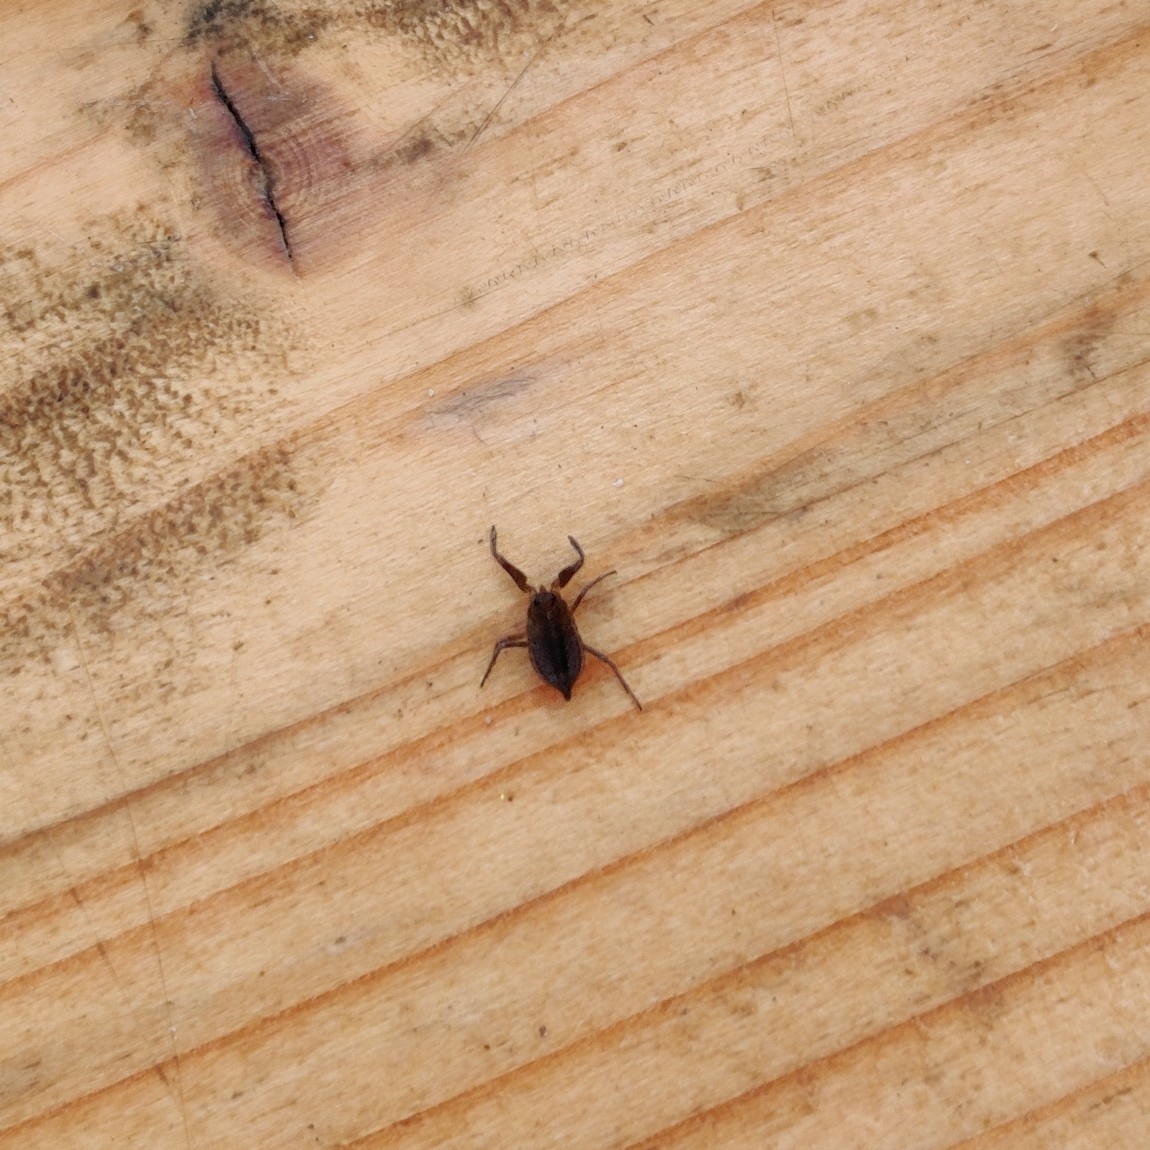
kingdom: Animalia
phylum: Arthropoda
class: Insecta
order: Hemiptera
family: Nepidae
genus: Nepa
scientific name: Nepa cinerea
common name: Water scorpion
